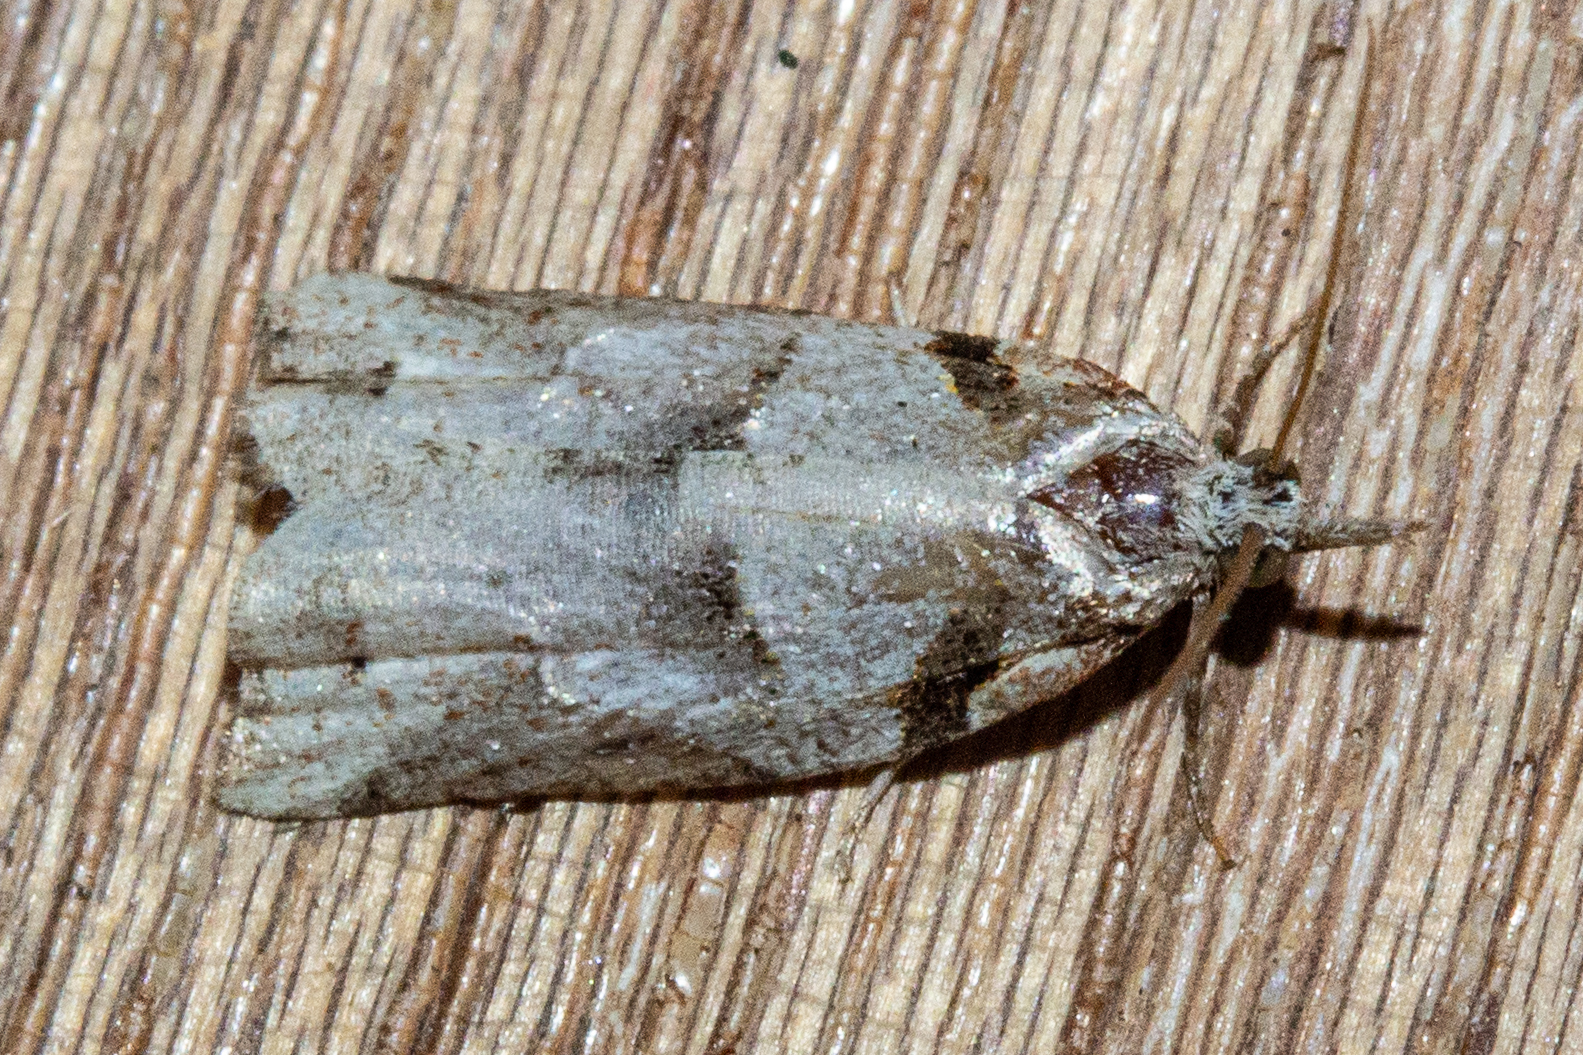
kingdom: Animalia
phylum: Arthropoda
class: Insecta
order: Lepidoptera
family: Tortricidae
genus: Harmologa
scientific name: Harmologa amplexana
